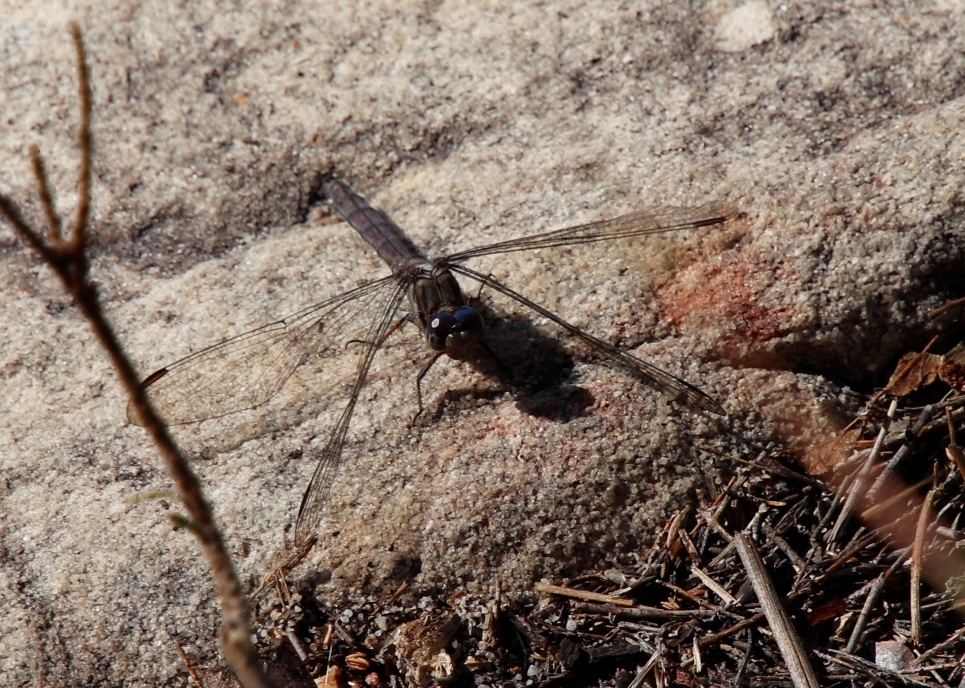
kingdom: Animalia
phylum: Arthropoda
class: Insecta
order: Odonata
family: Libellulidae
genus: Orthetrum
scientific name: Orthetrum julia
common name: Julia skimmer
